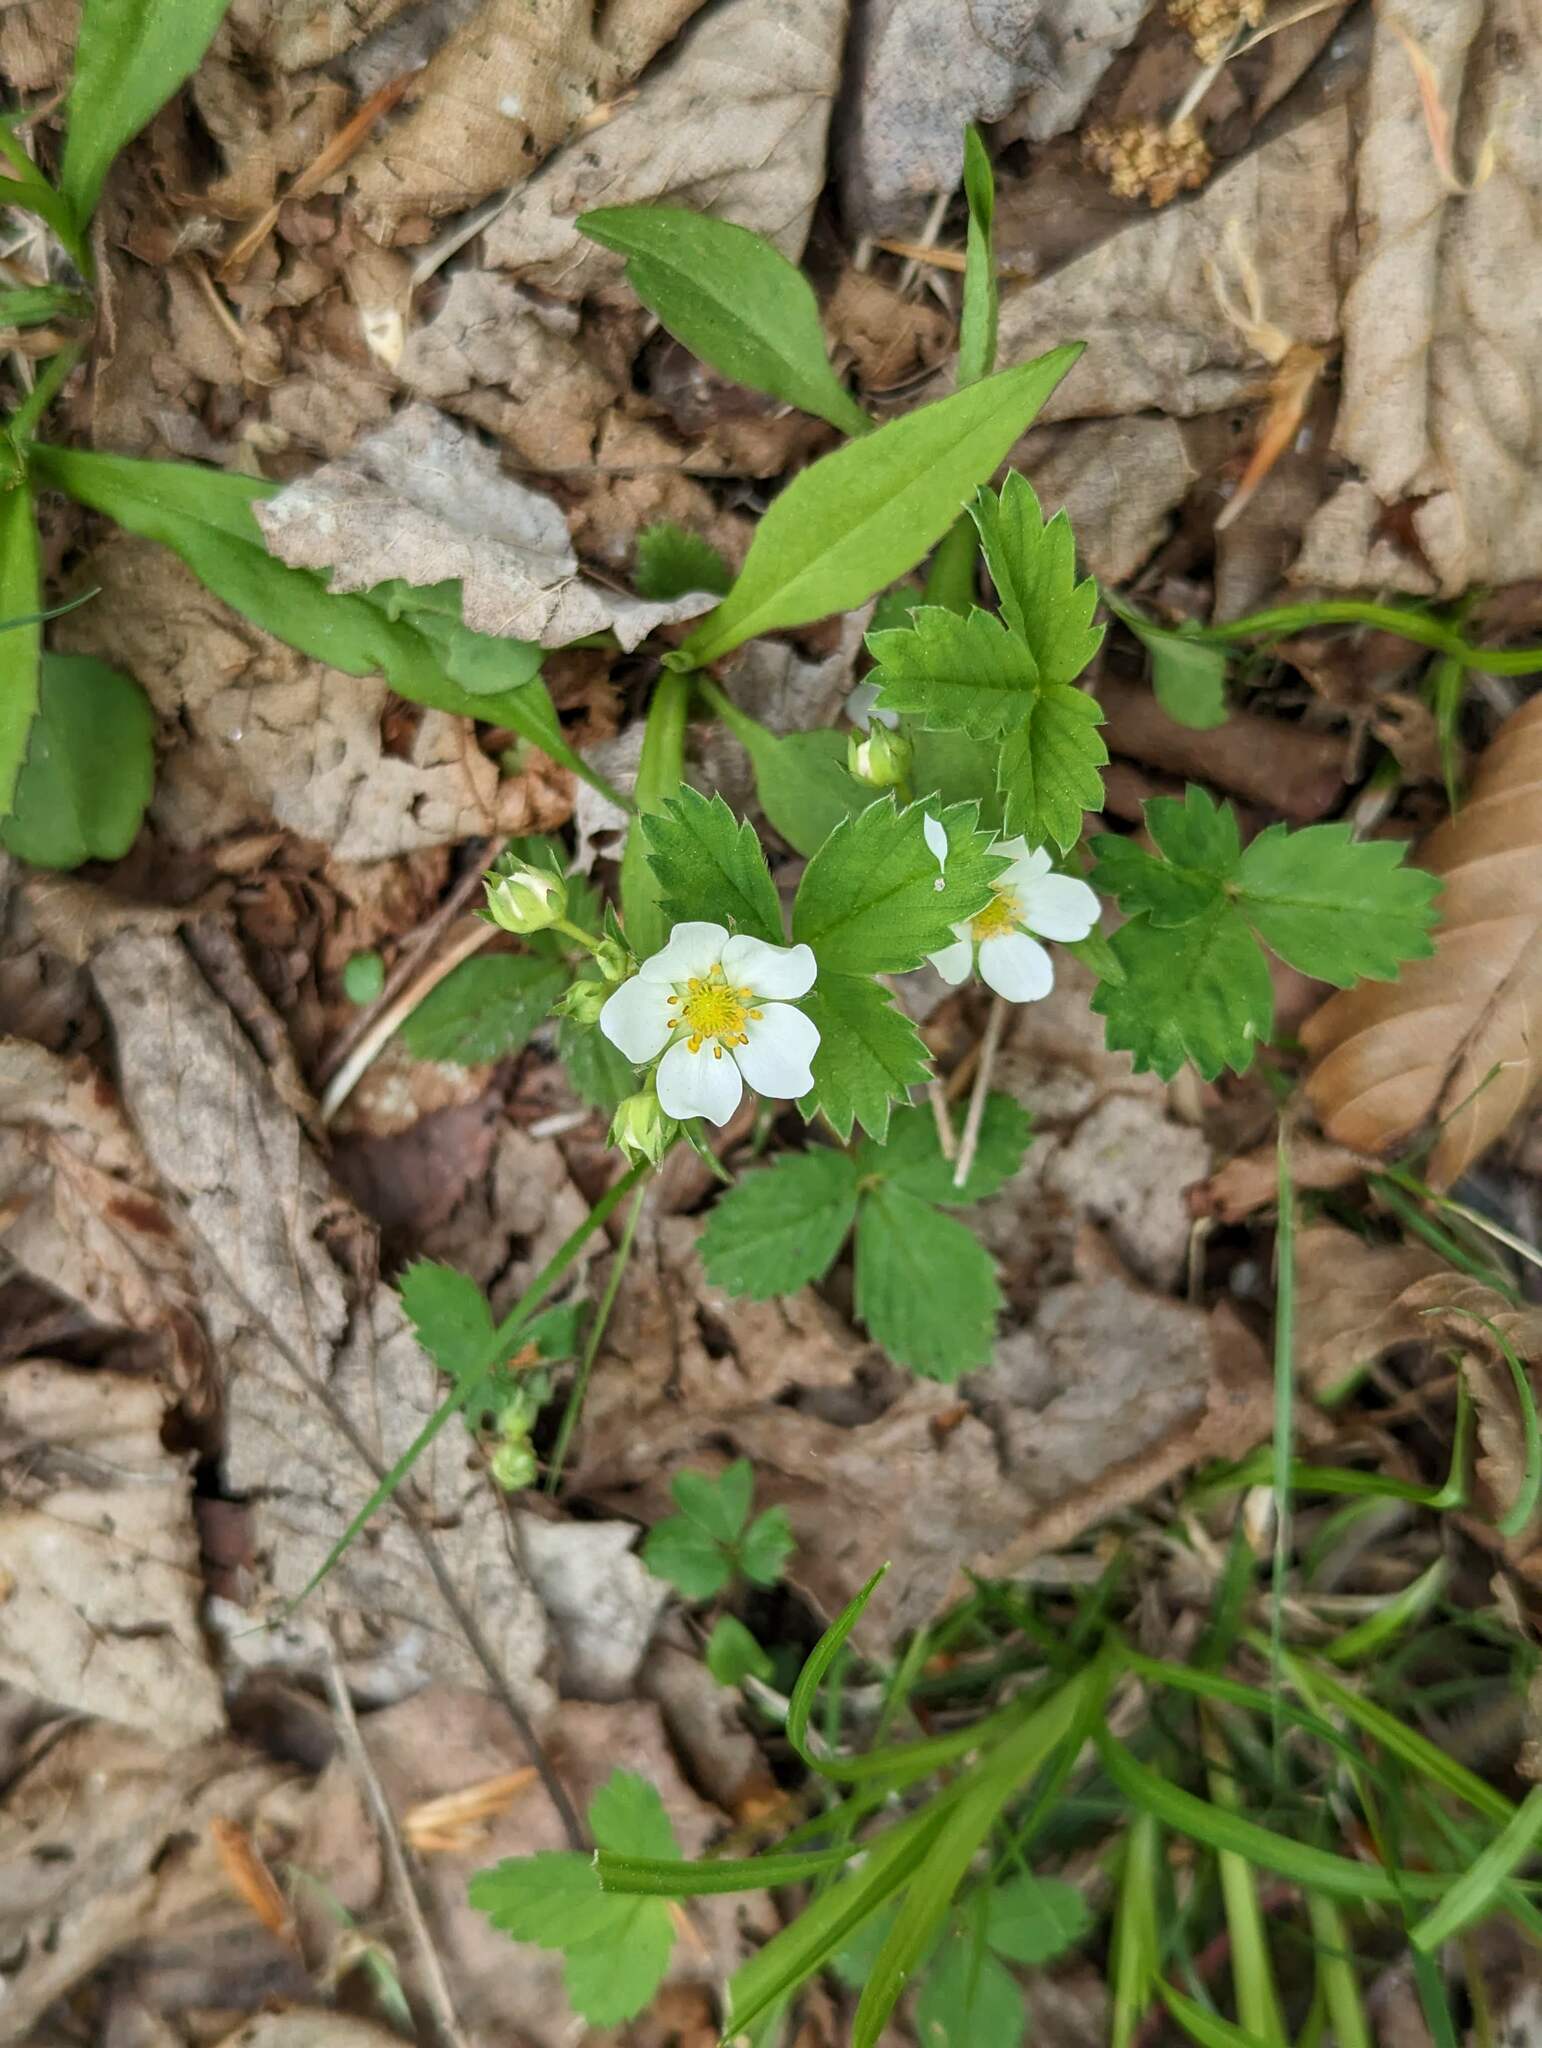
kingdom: Plantae
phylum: Tracheophyta
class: Magnoliopsida
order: Rosales
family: Rosaceae
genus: Fragaria
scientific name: Fragaria virginiana
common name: Thickleaved wild strawberry
